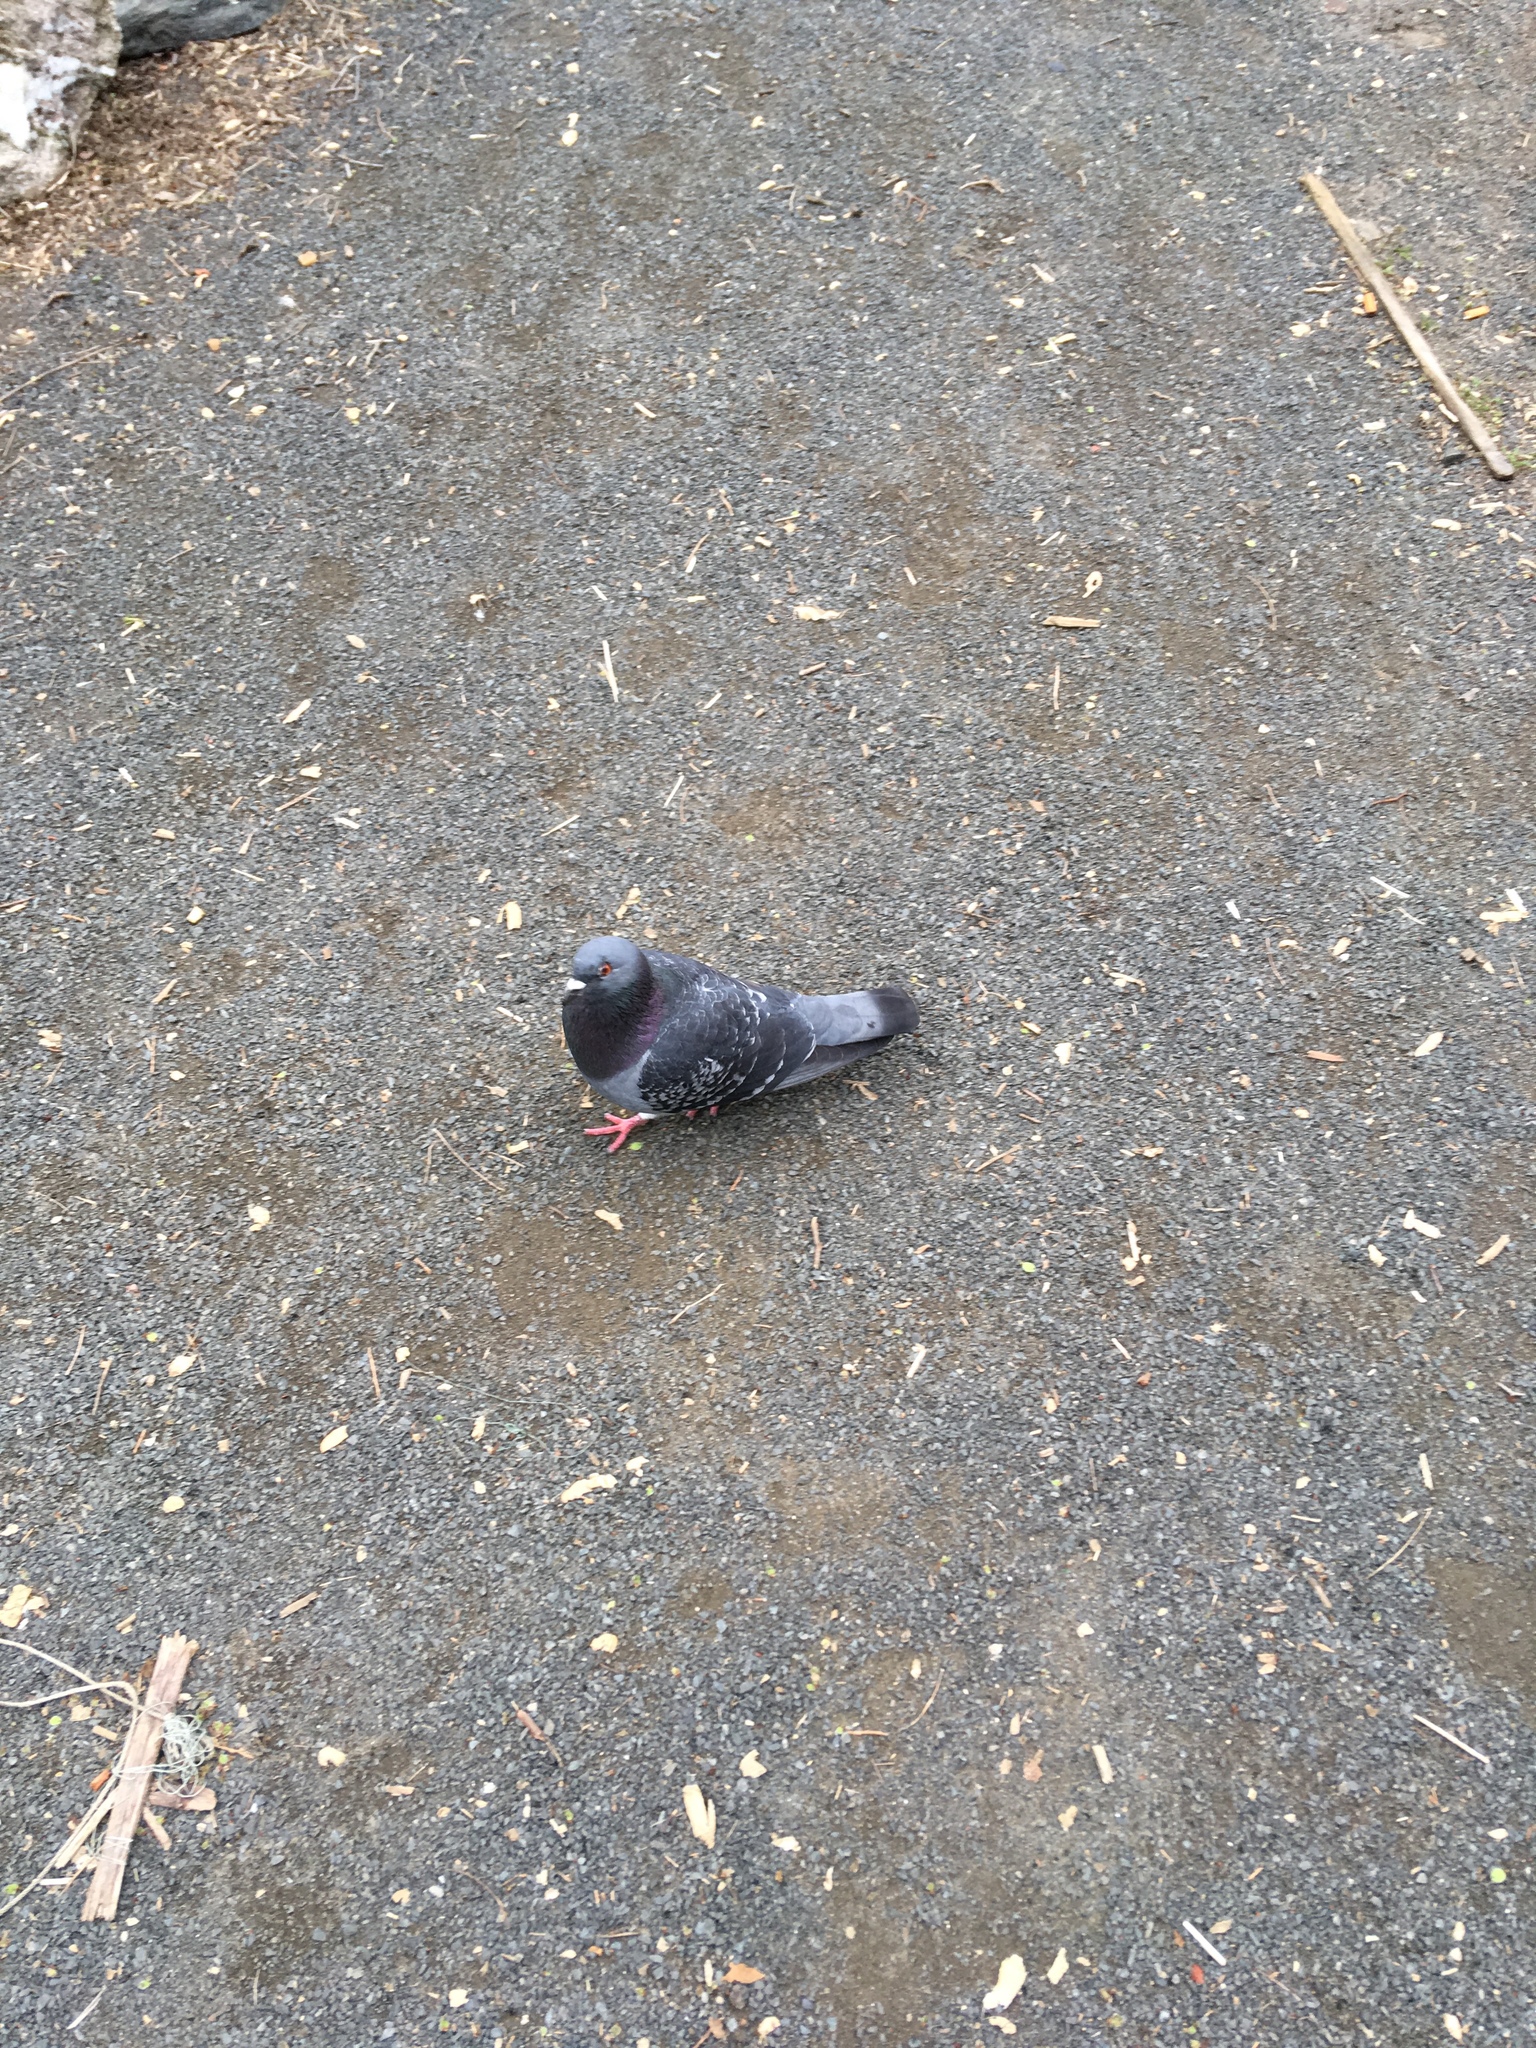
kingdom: Animalia
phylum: Chordata
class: Aves
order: Columbiformes
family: Columbidae
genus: Columba
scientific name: Columba livia
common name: Rock pigeon
